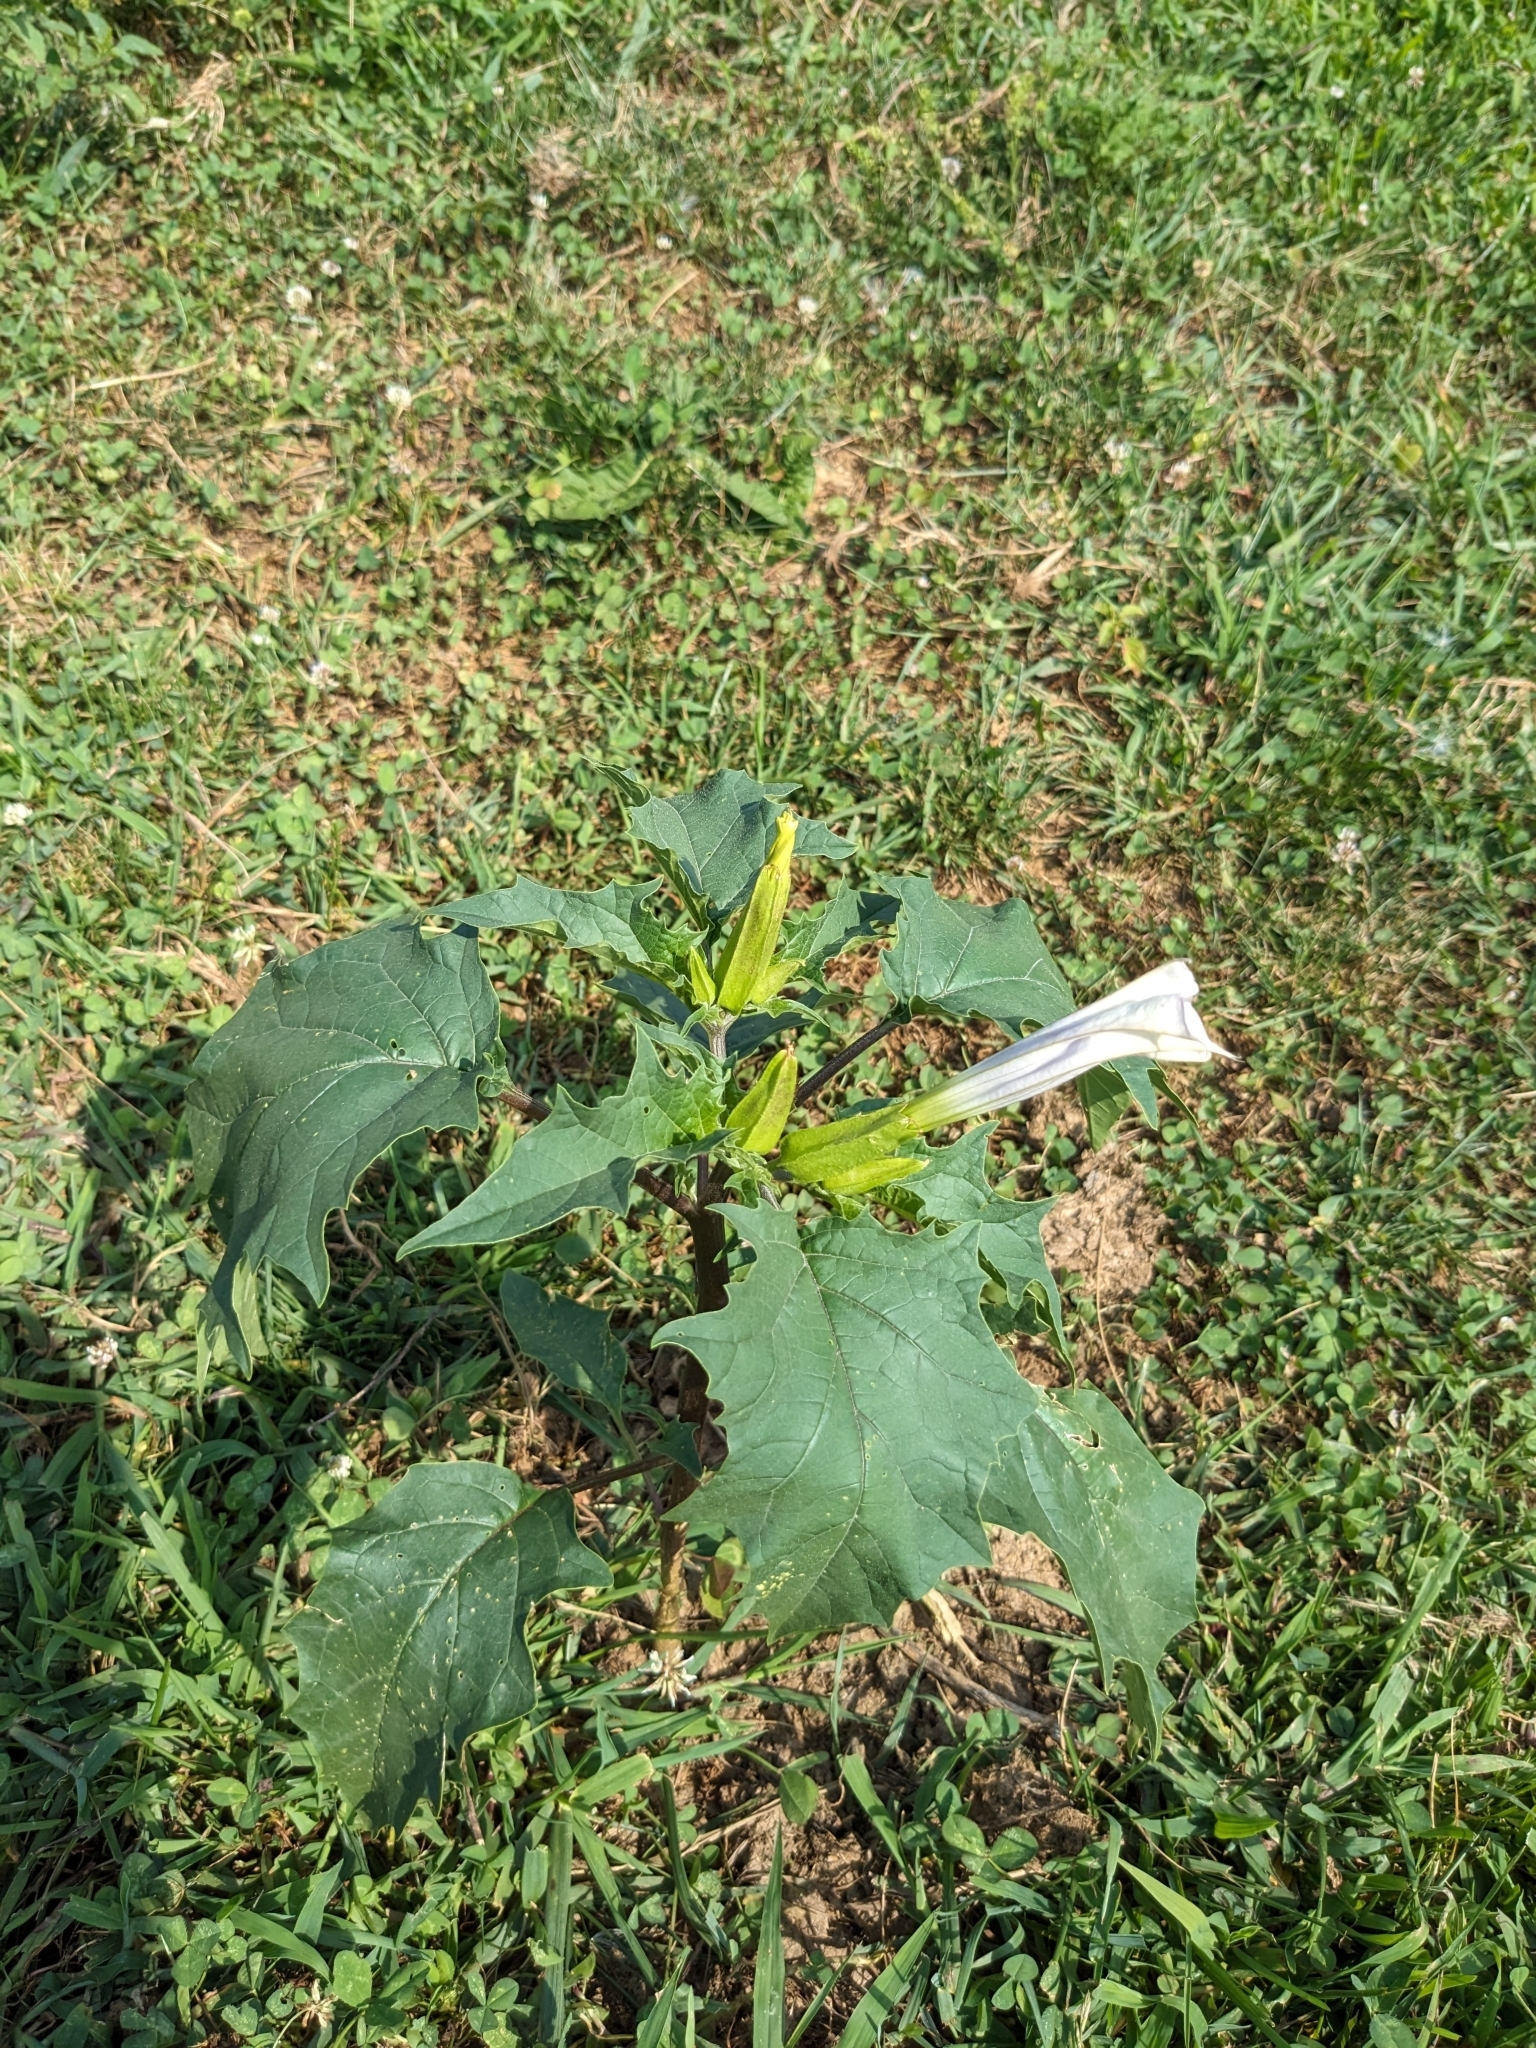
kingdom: Plantae
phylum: Tracheophyta
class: Magnoliopsida
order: Solanales
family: Solanaceae
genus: Datura
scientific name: Datura stramonium
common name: Thorn-apple
